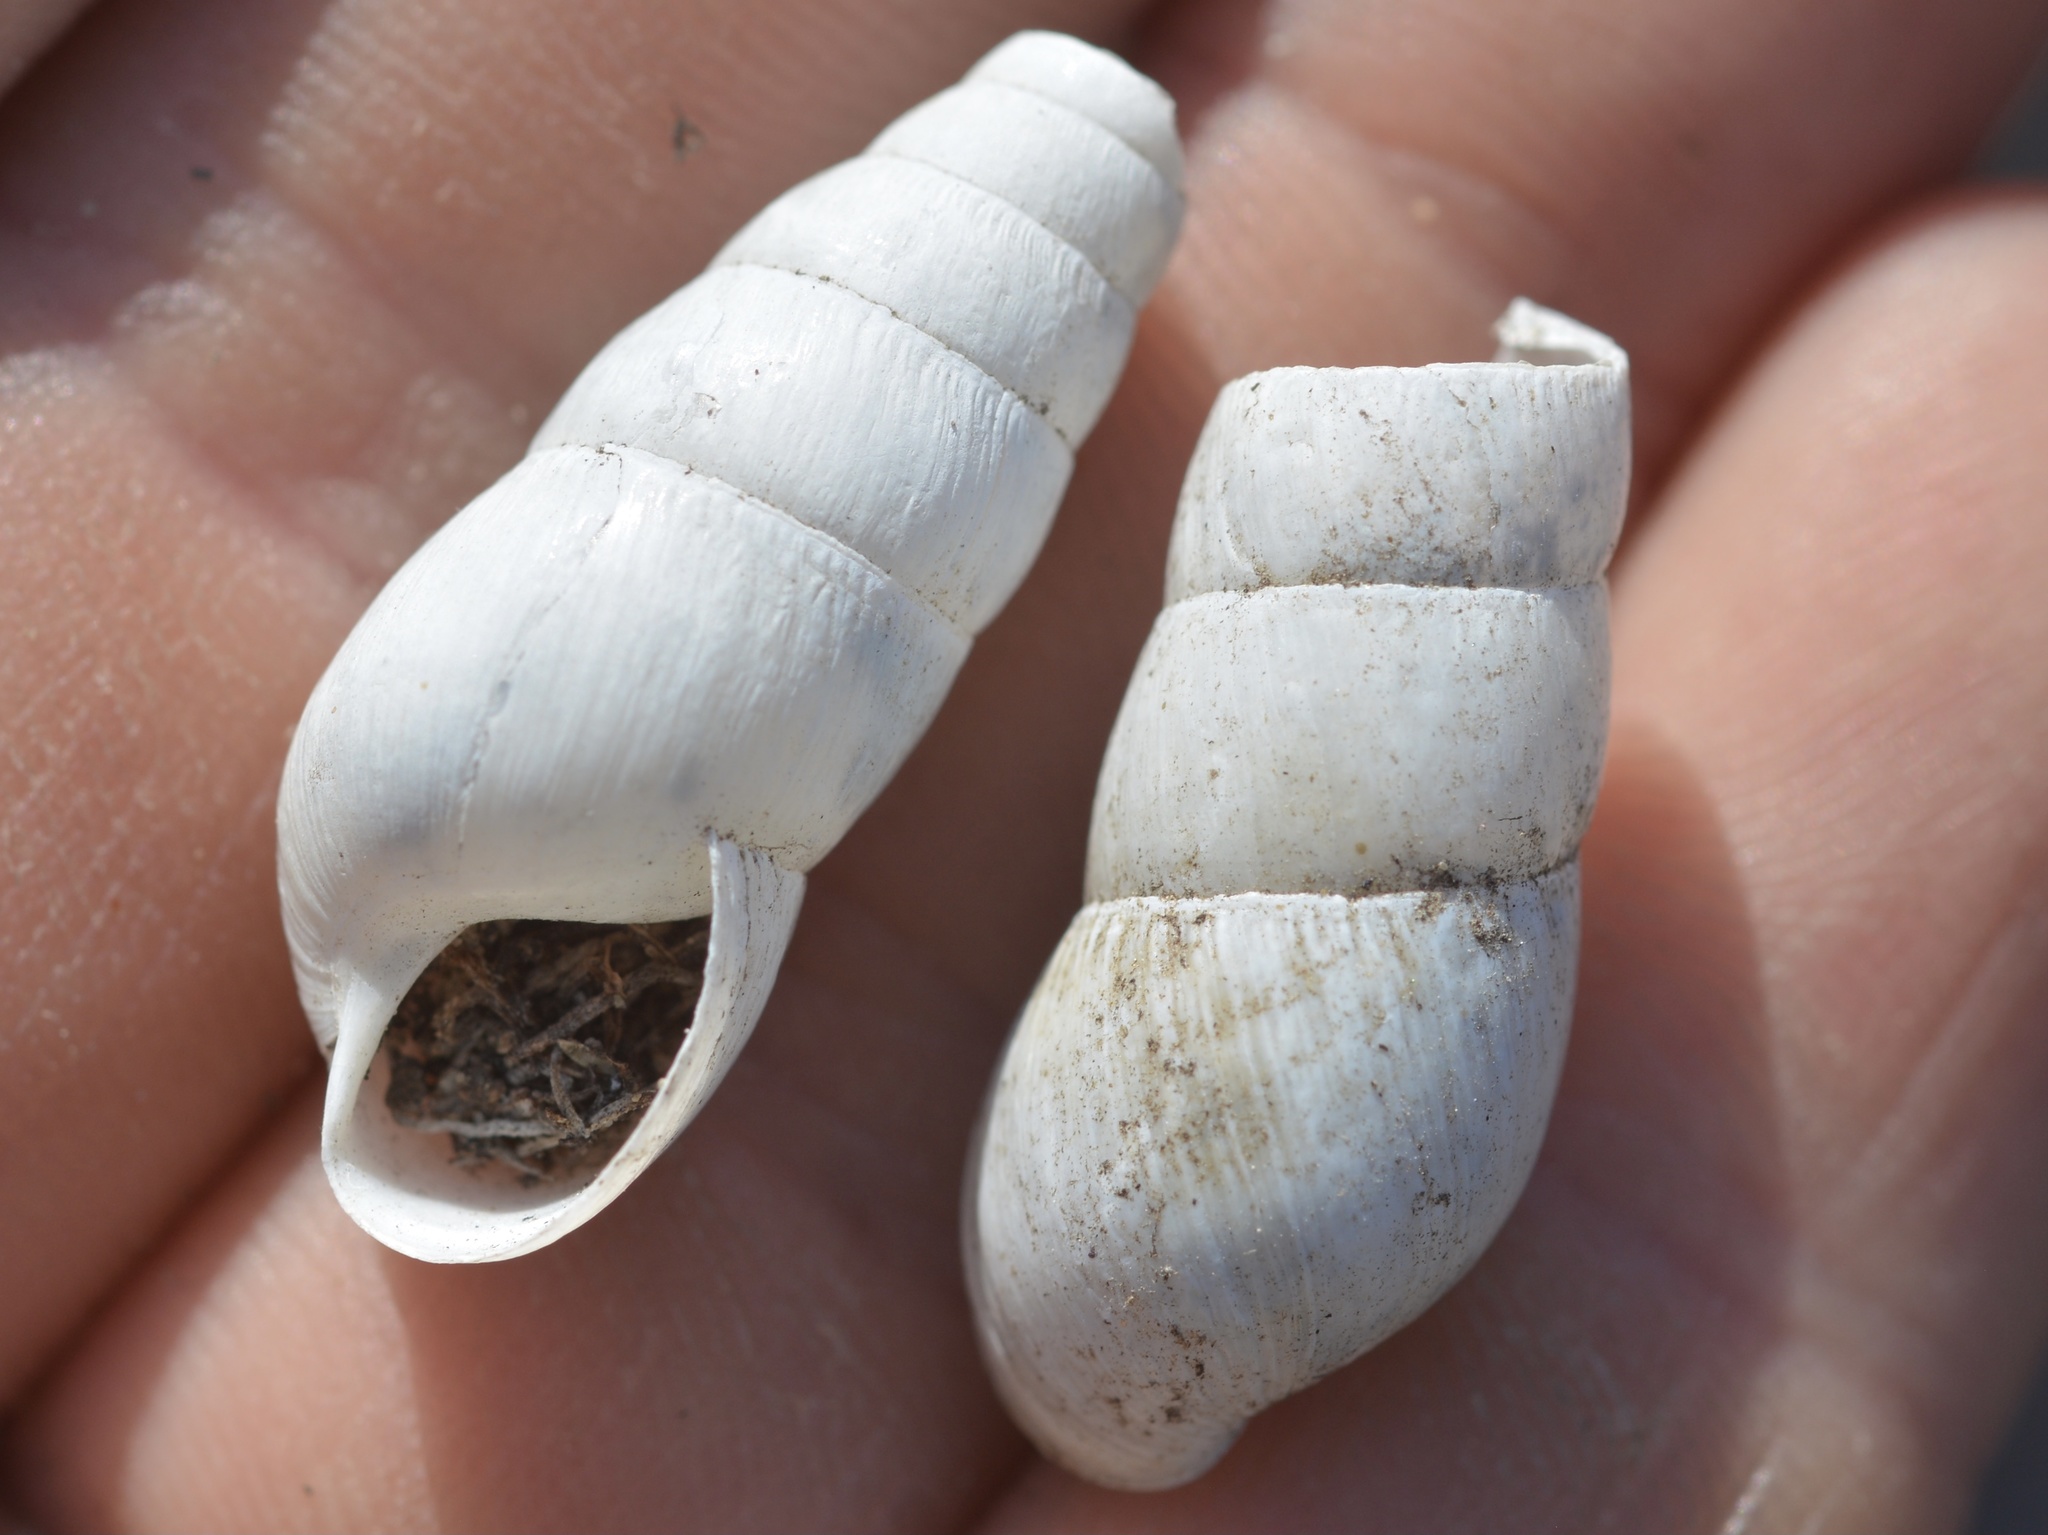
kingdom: Animalia
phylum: Mollusca
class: Gastropoda
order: Stylommatophora
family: Achatinidae
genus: Rumina
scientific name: Rumina decollata
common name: Decollate snail
